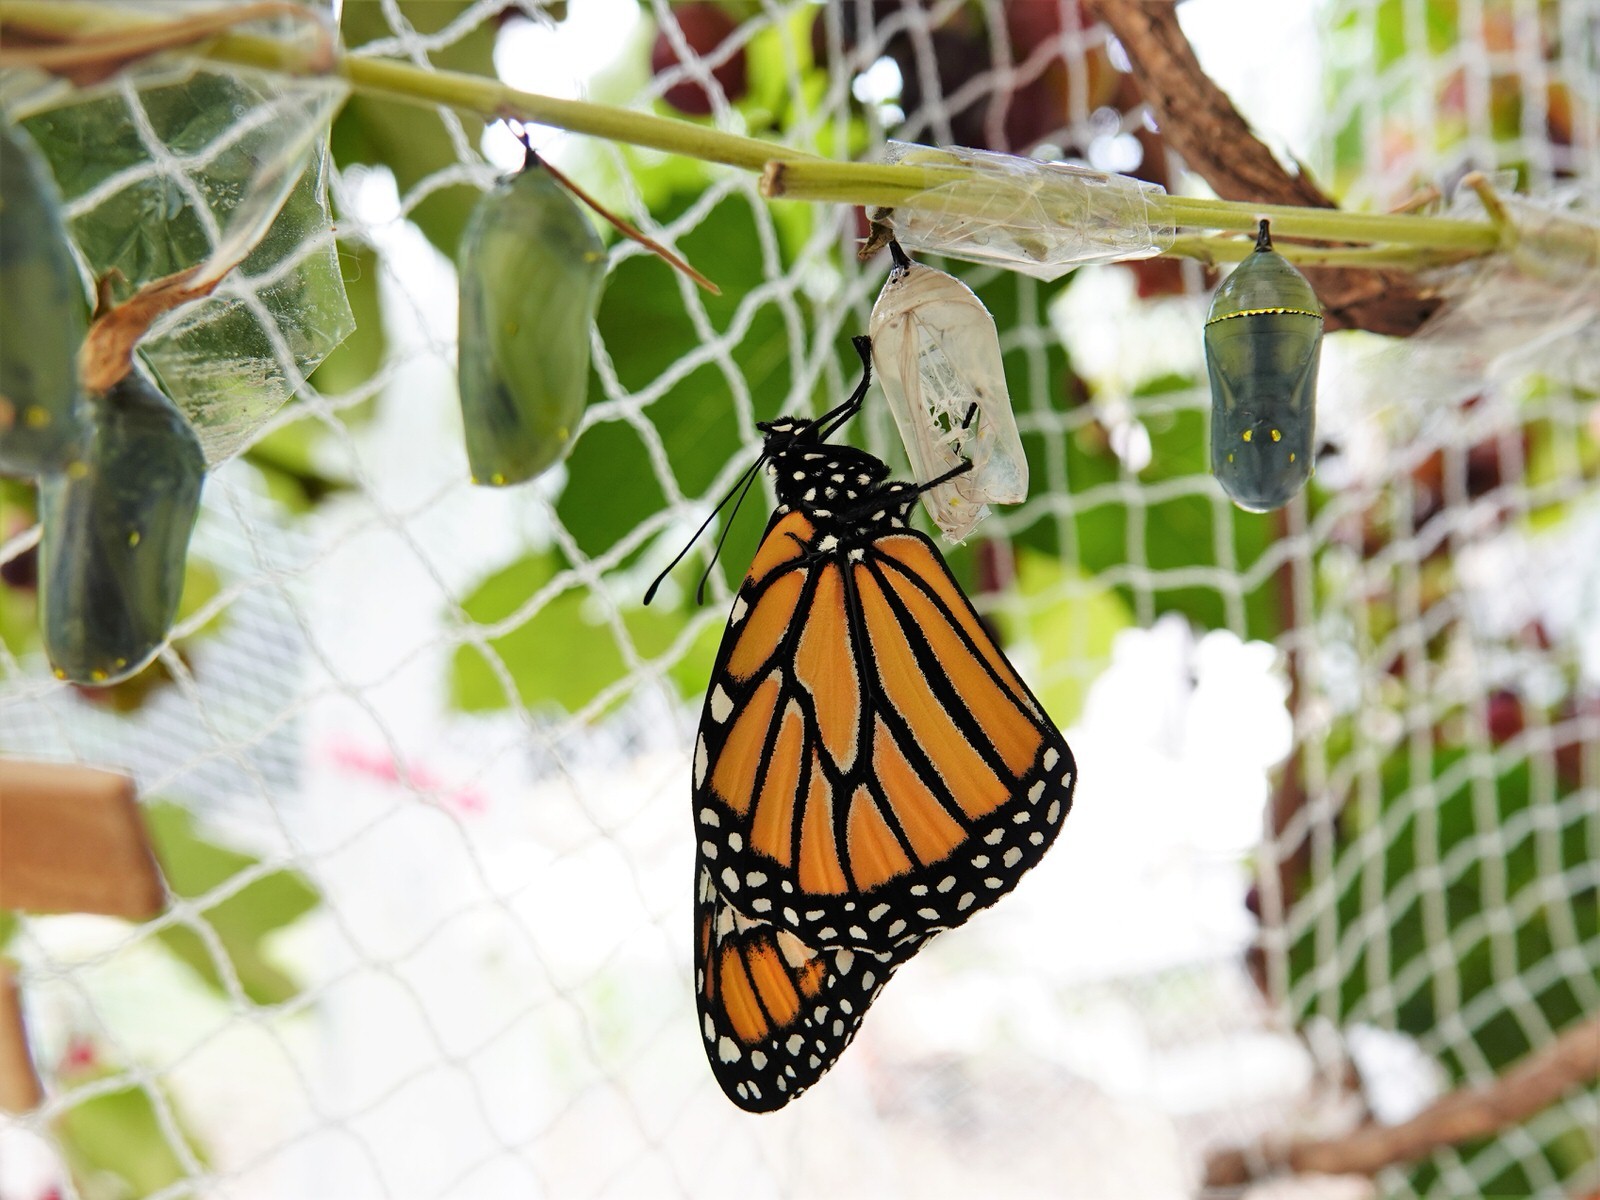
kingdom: Animalia
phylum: Arthropoda
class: Insecta
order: Lepidoptera
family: Nymphalidae
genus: Danaus
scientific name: Danaus plexippus
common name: Monarch
